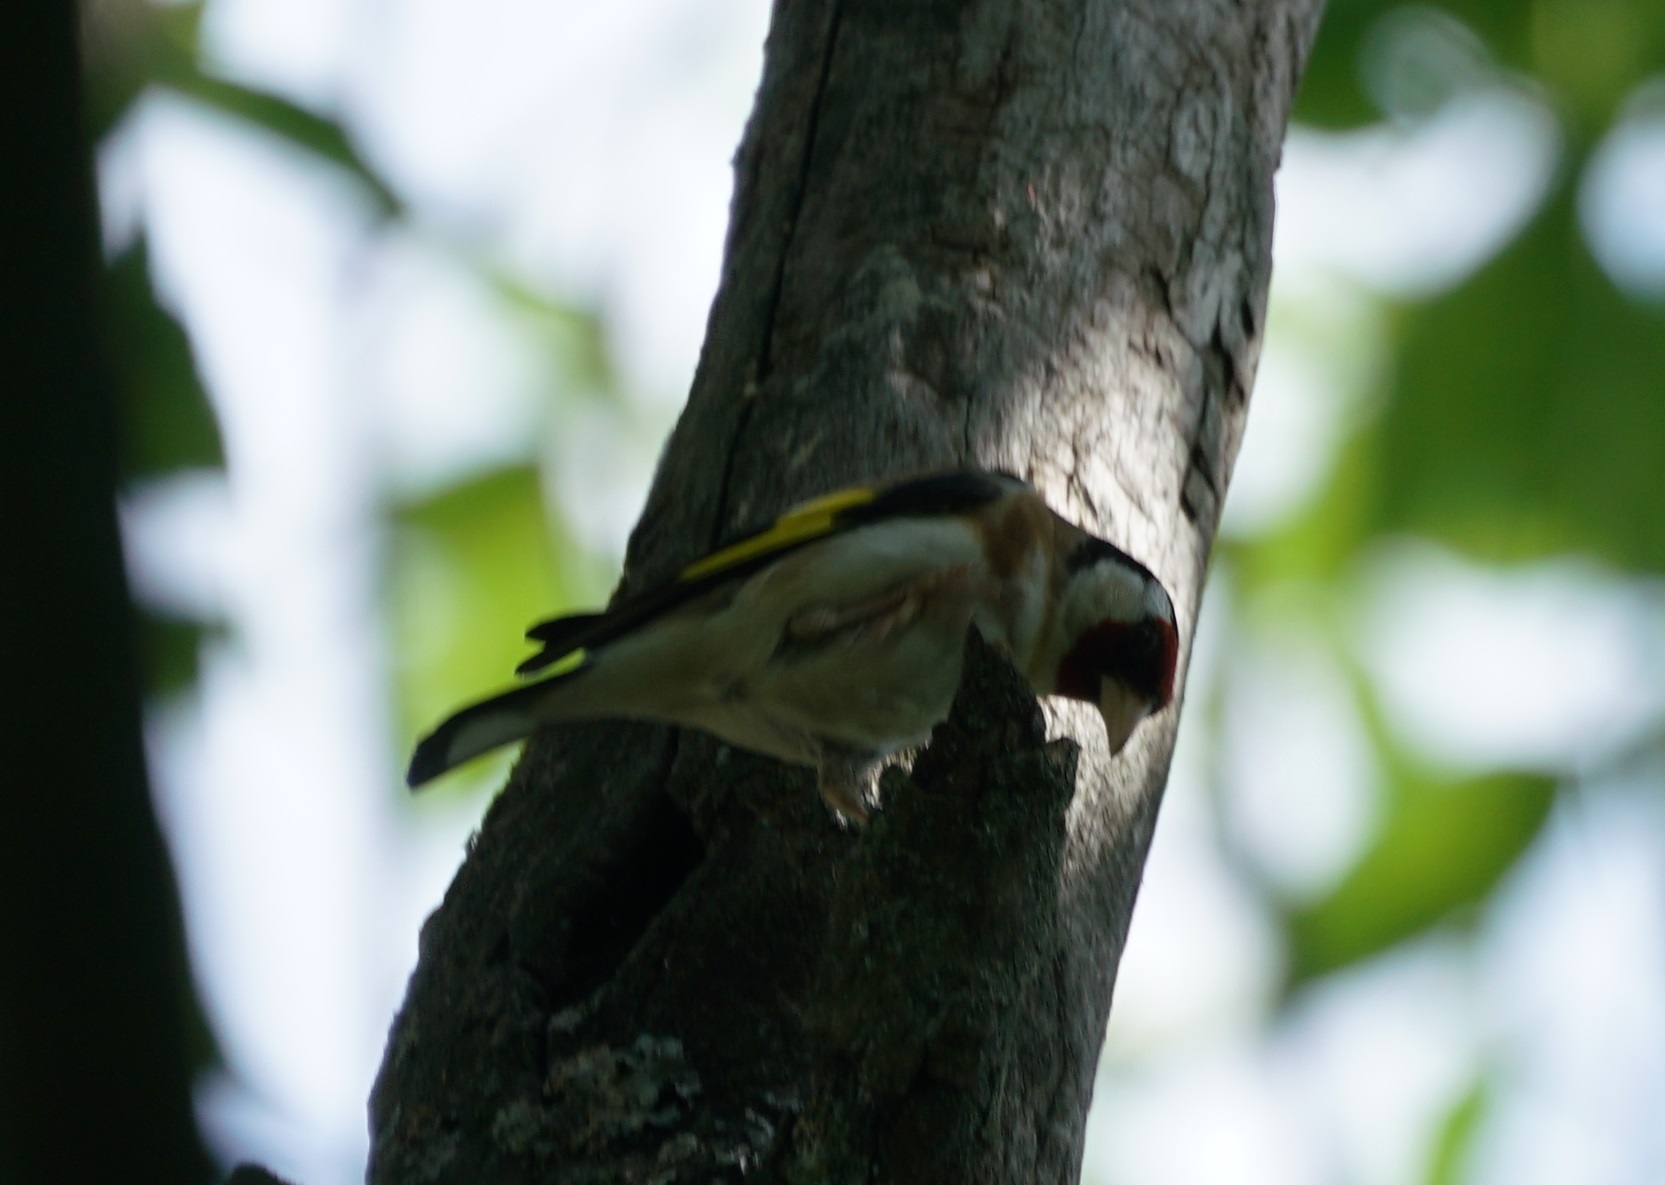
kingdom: Animalia
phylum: Chordata
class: Aves
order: Passeriformes
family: Fringillidae
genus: Carduelis
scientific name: Carduelis carduelis
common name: European goldfinch
